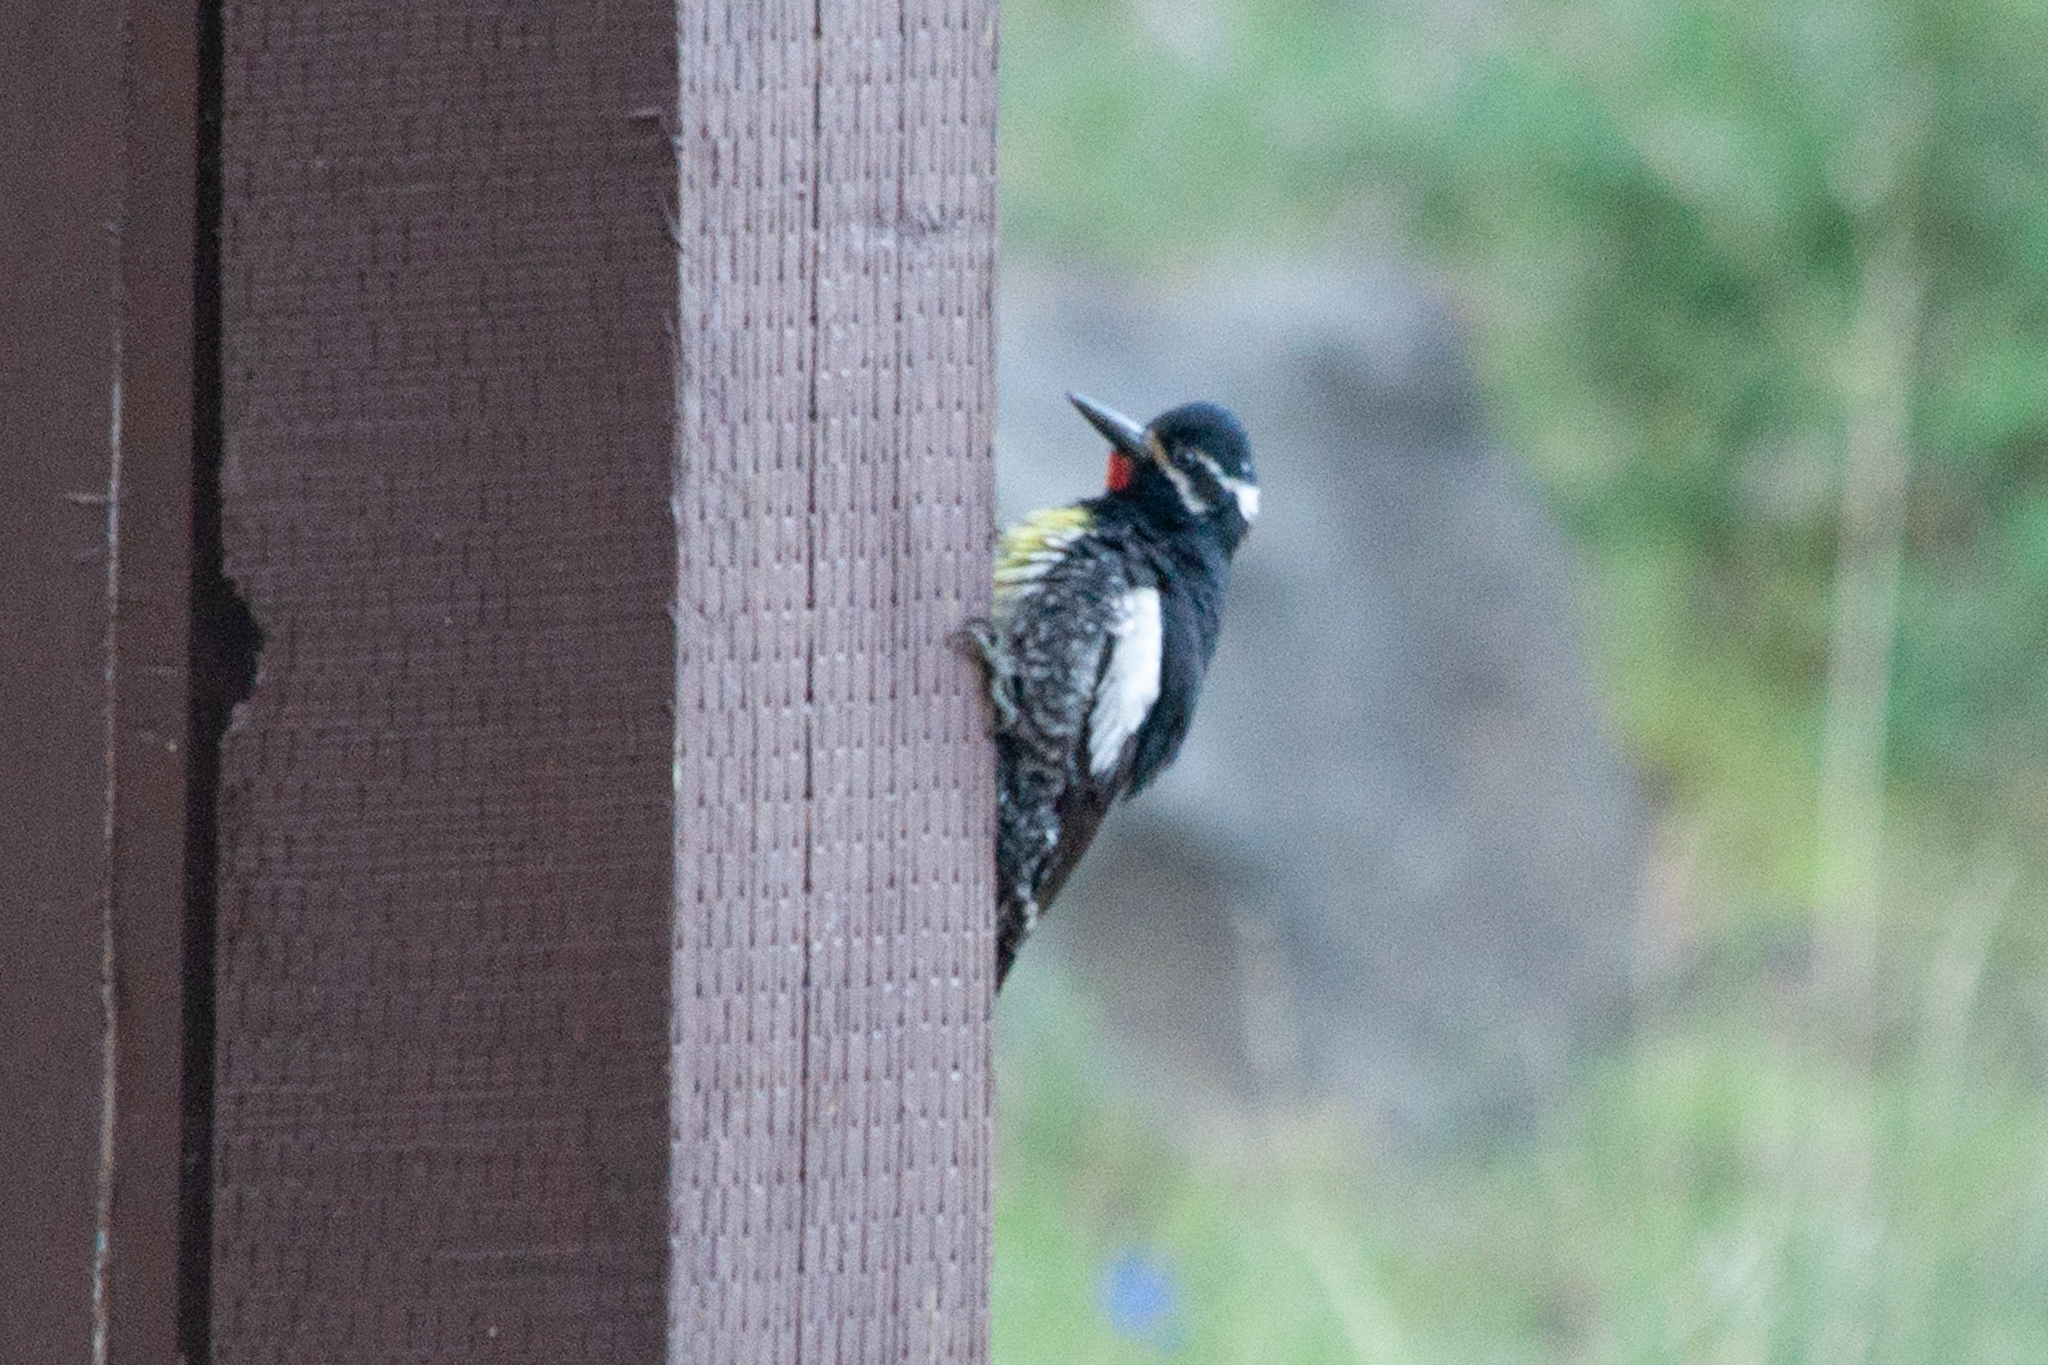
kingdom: Animalia
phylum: Chordata
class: Aves
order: Piciformes
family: Picidae
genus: Sphyrapicus
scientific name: Sphyrapicus thyroideus
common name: Williamson's sapsucker
